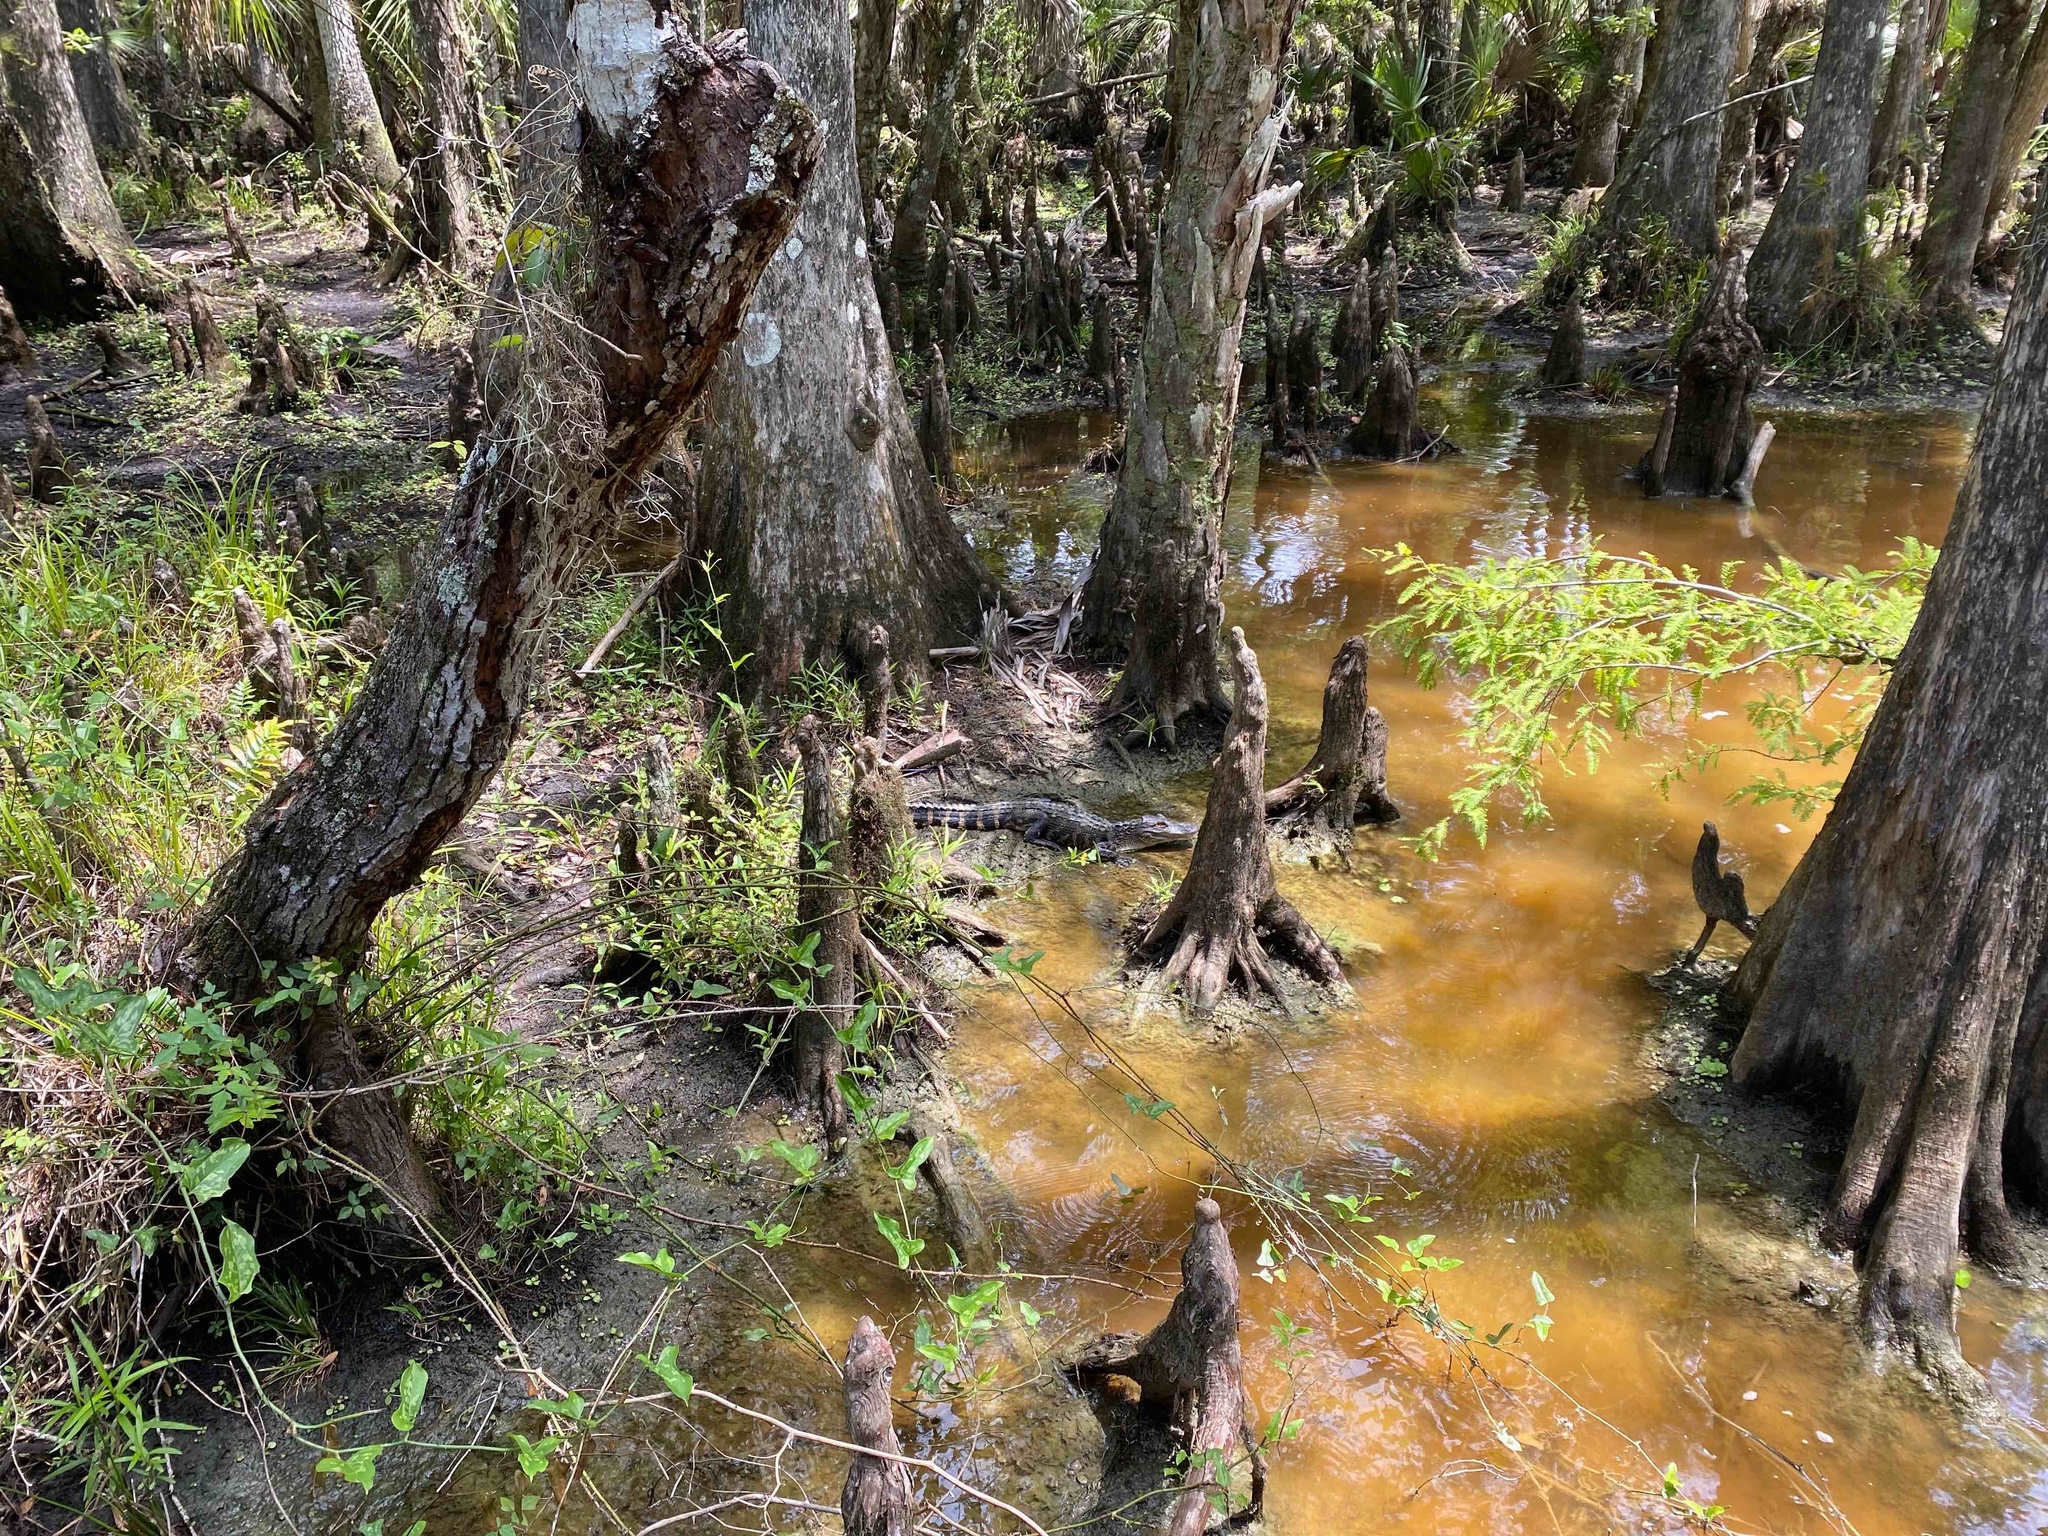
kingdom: Animalia
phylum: Chordata
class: Crocodylia
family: Alligatoridae
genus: Alligator
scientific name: Alligator mississippiensis
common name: American alligator
